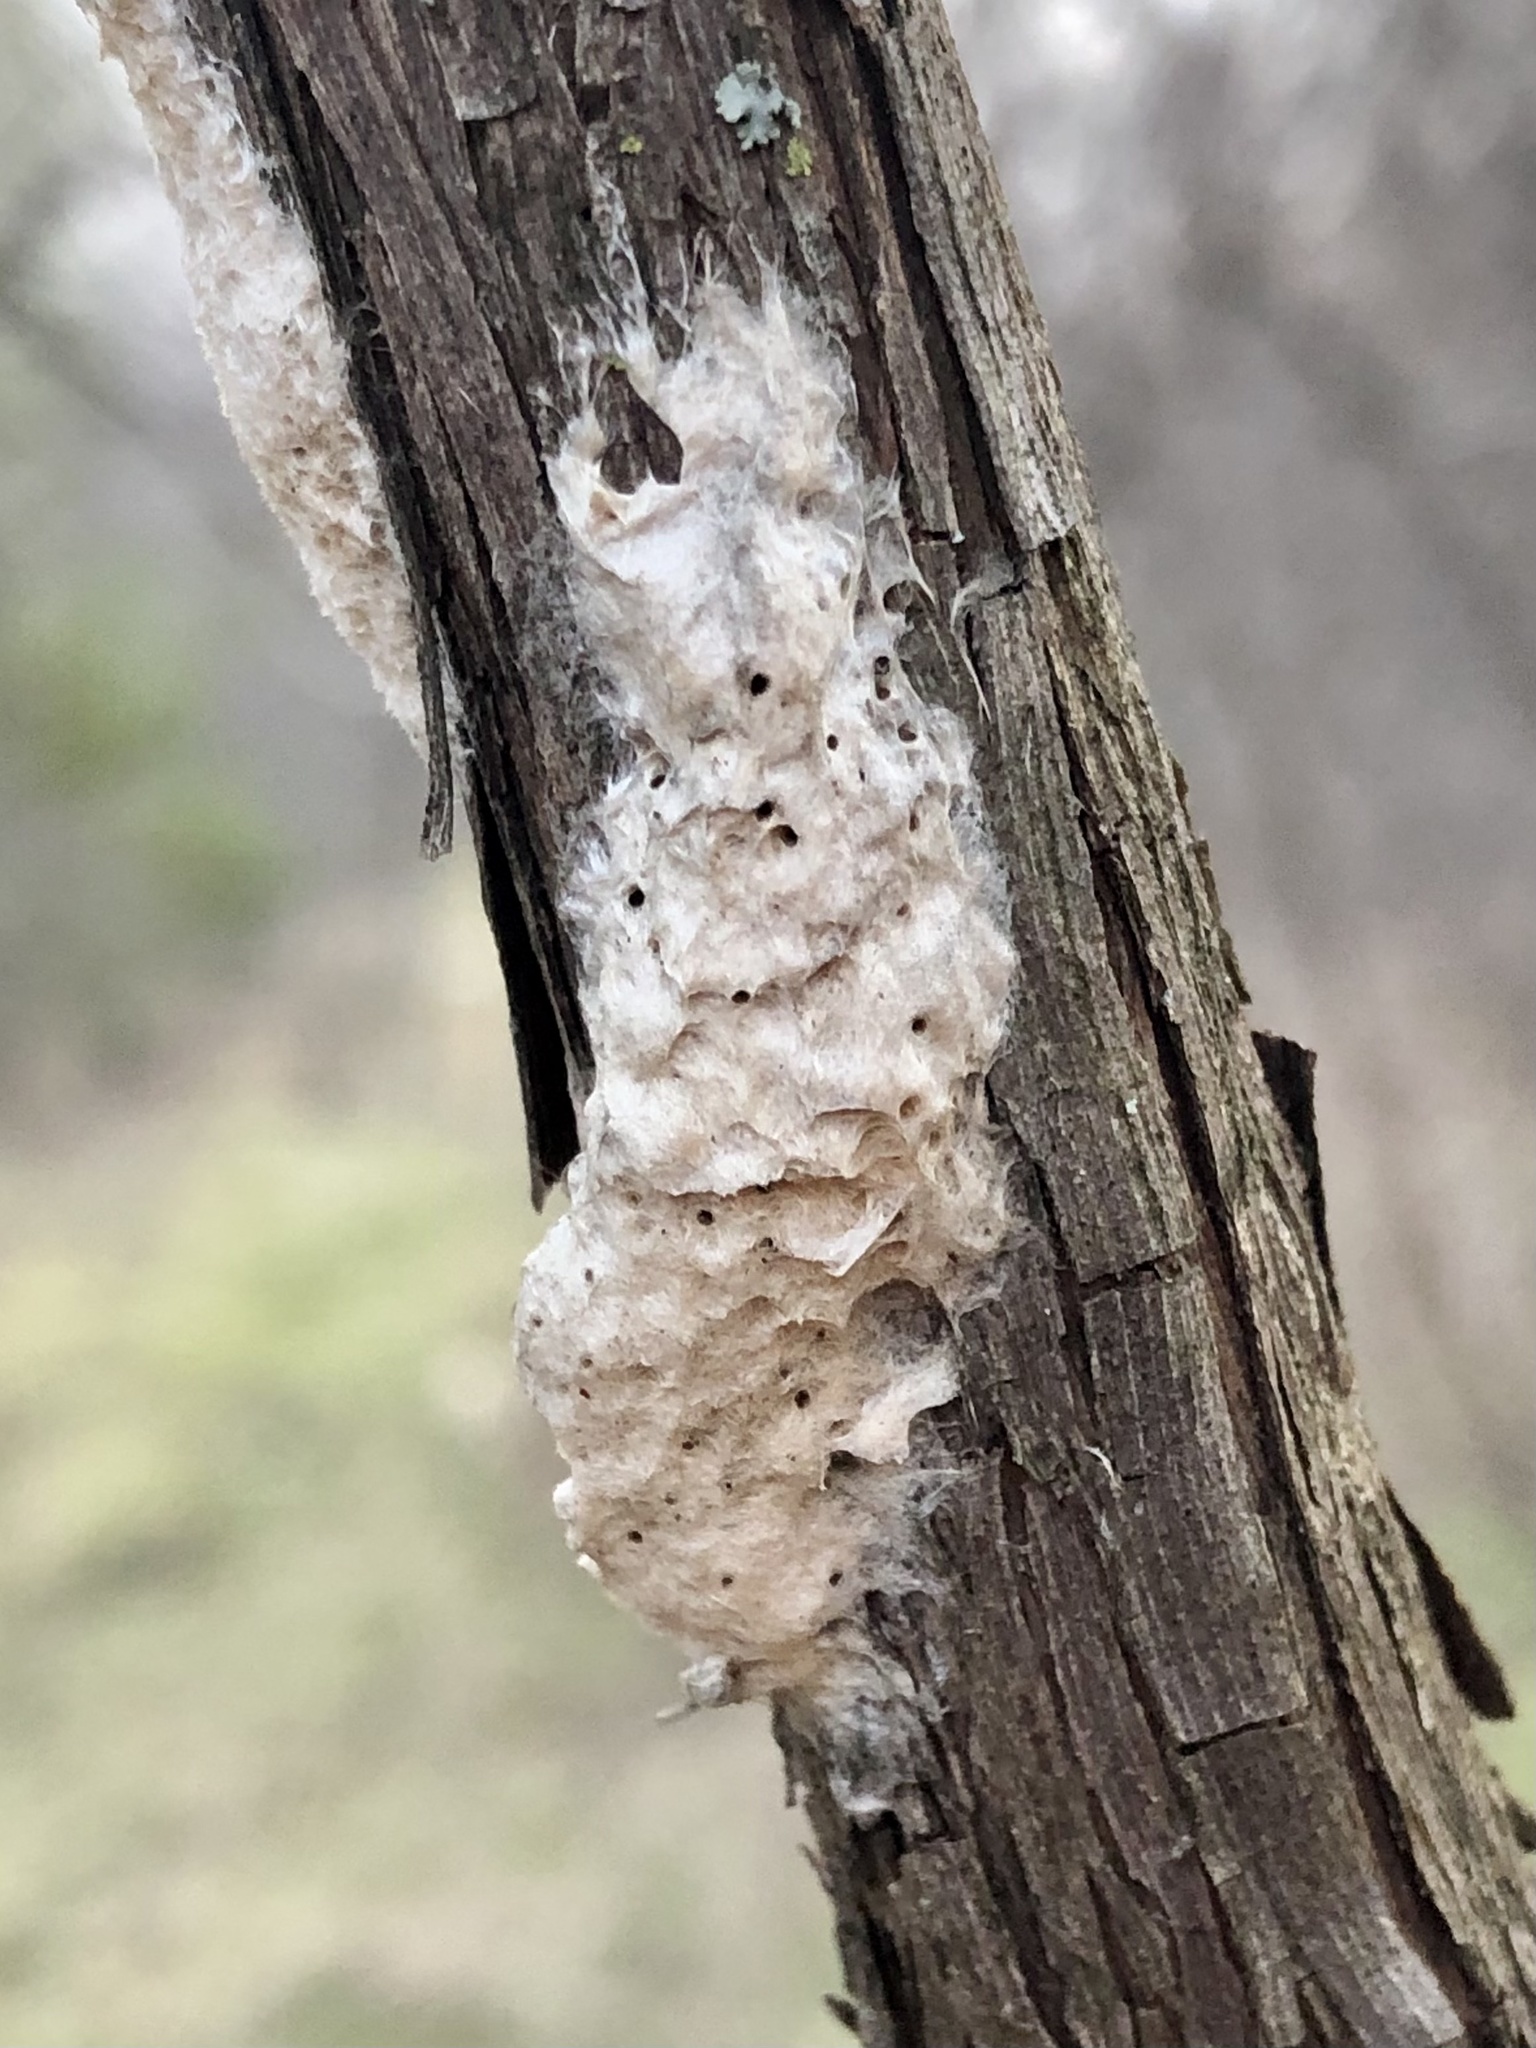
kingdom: Animalia
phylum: Arthropoda
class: Insecta
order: Lepidoptera
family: Erebidae
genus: Lymantria
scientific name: Lymantria dispar
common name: Gypsy moth
